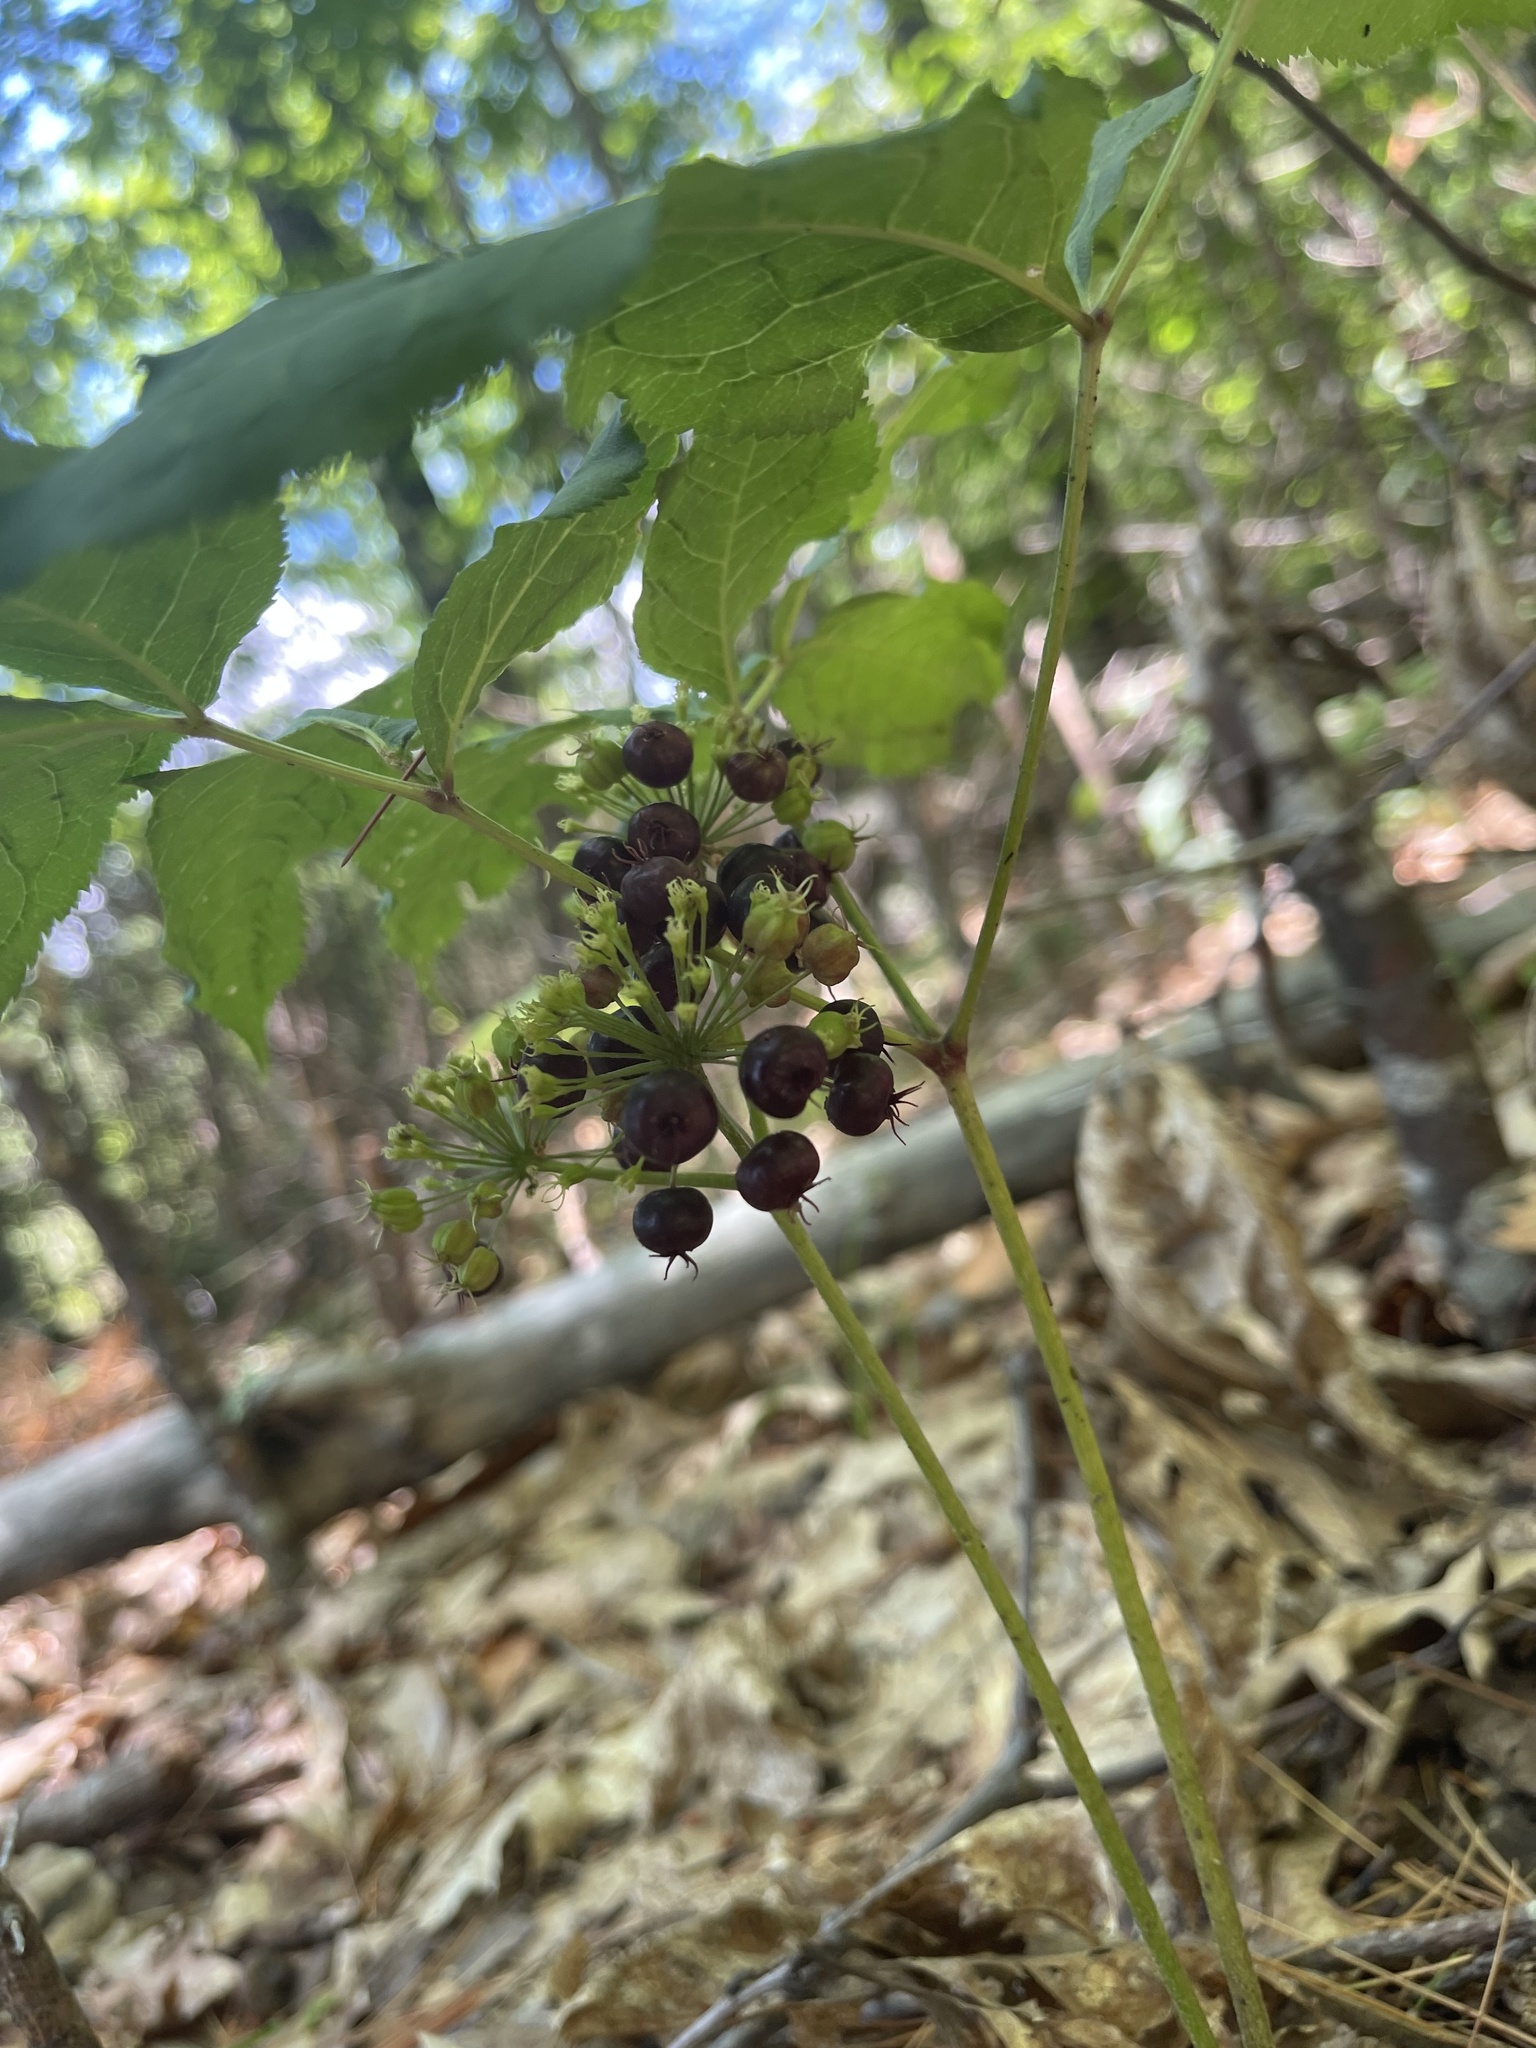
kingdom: Plantae
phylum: Tracheophyta
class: Magnoliopsida
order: Apiales
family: Araliaceae
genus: Aralia
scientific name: Aralia nudicaulis
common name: Wild sarsaparilla
